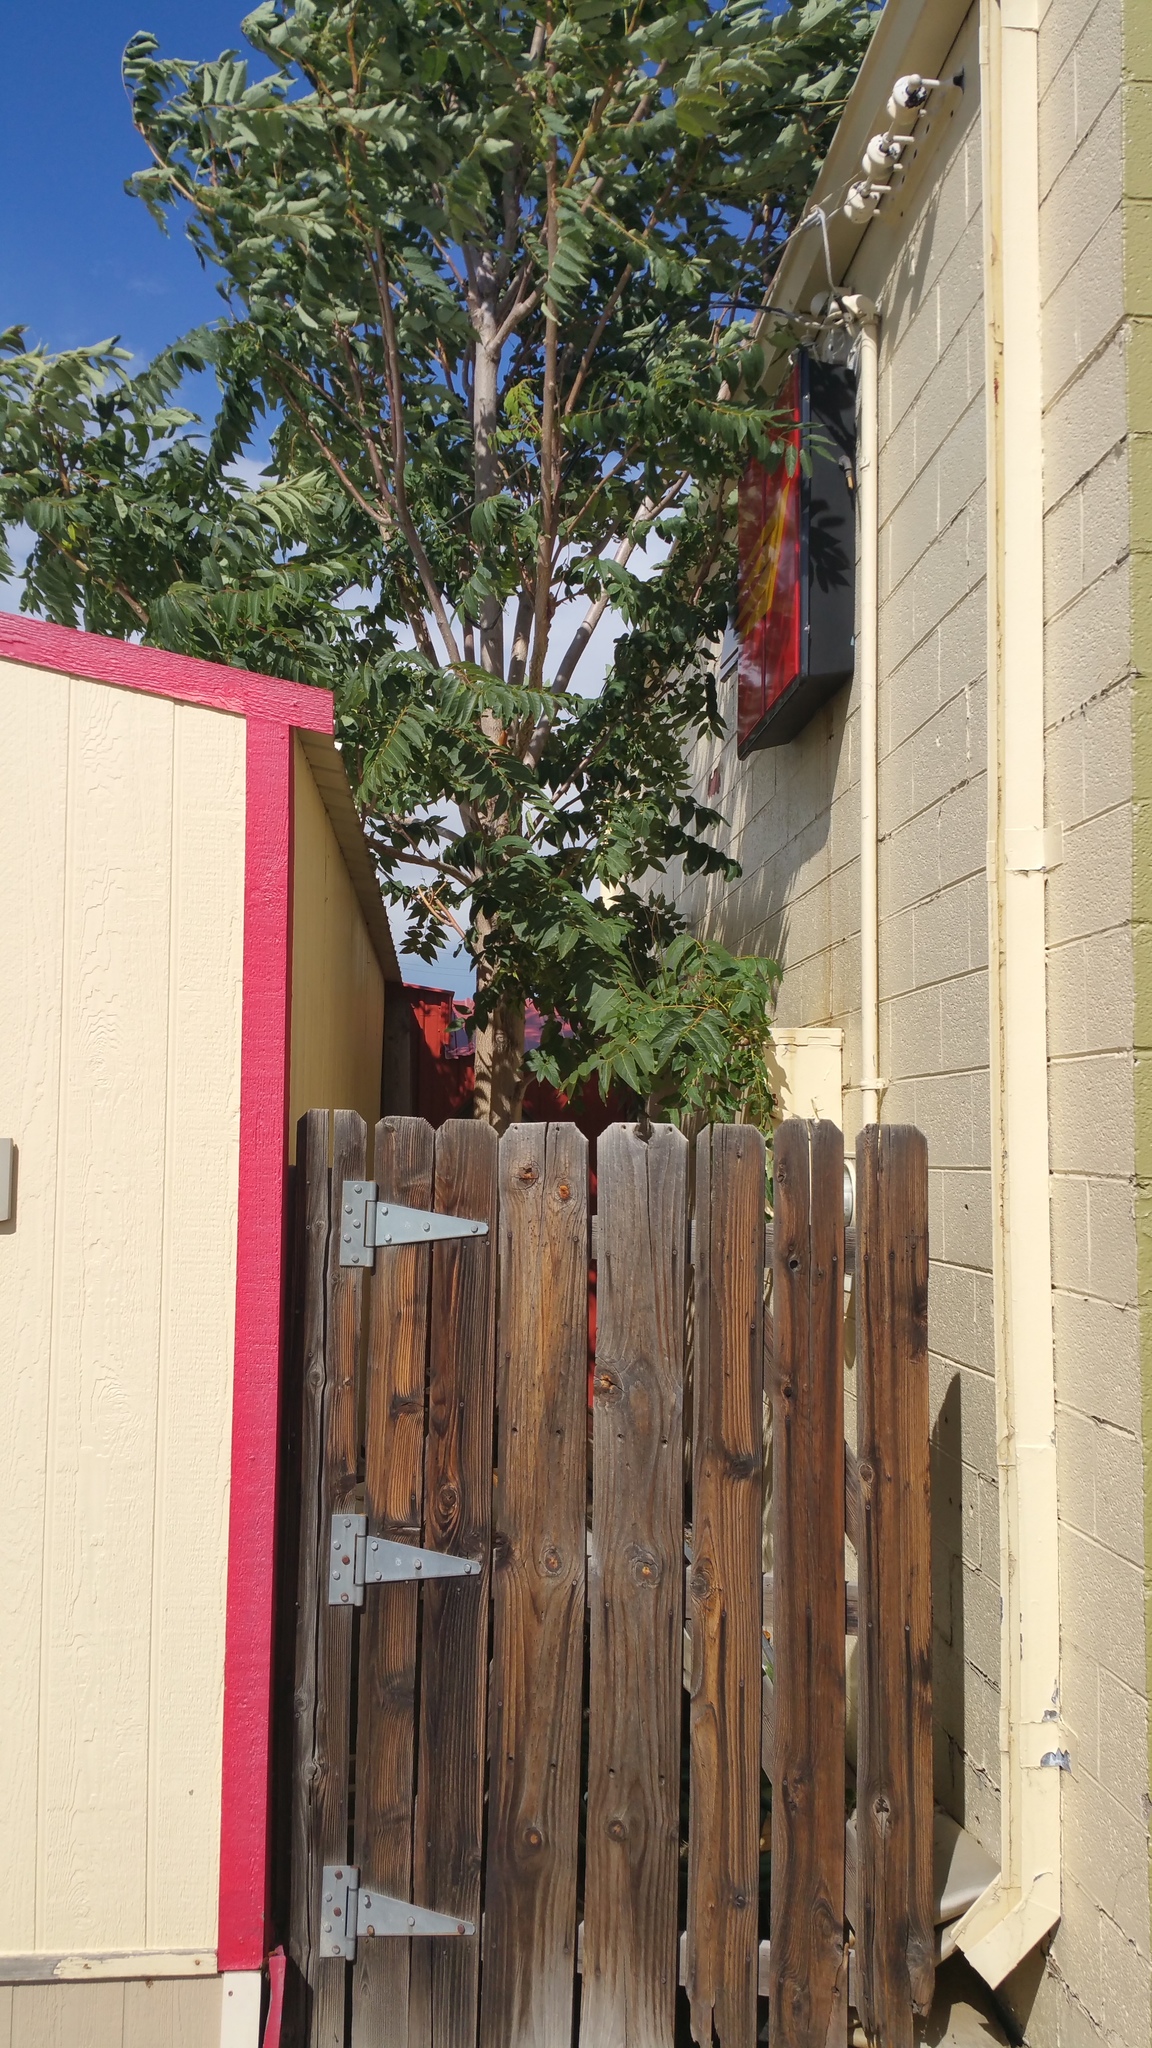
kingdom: Plantae
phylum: Tracheophyta
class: Magnoliopsida
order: Sapindales
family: Simaroubaceae
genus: Ailanthus
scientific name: Ailanthus altissima
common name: Tree-of-heaven
